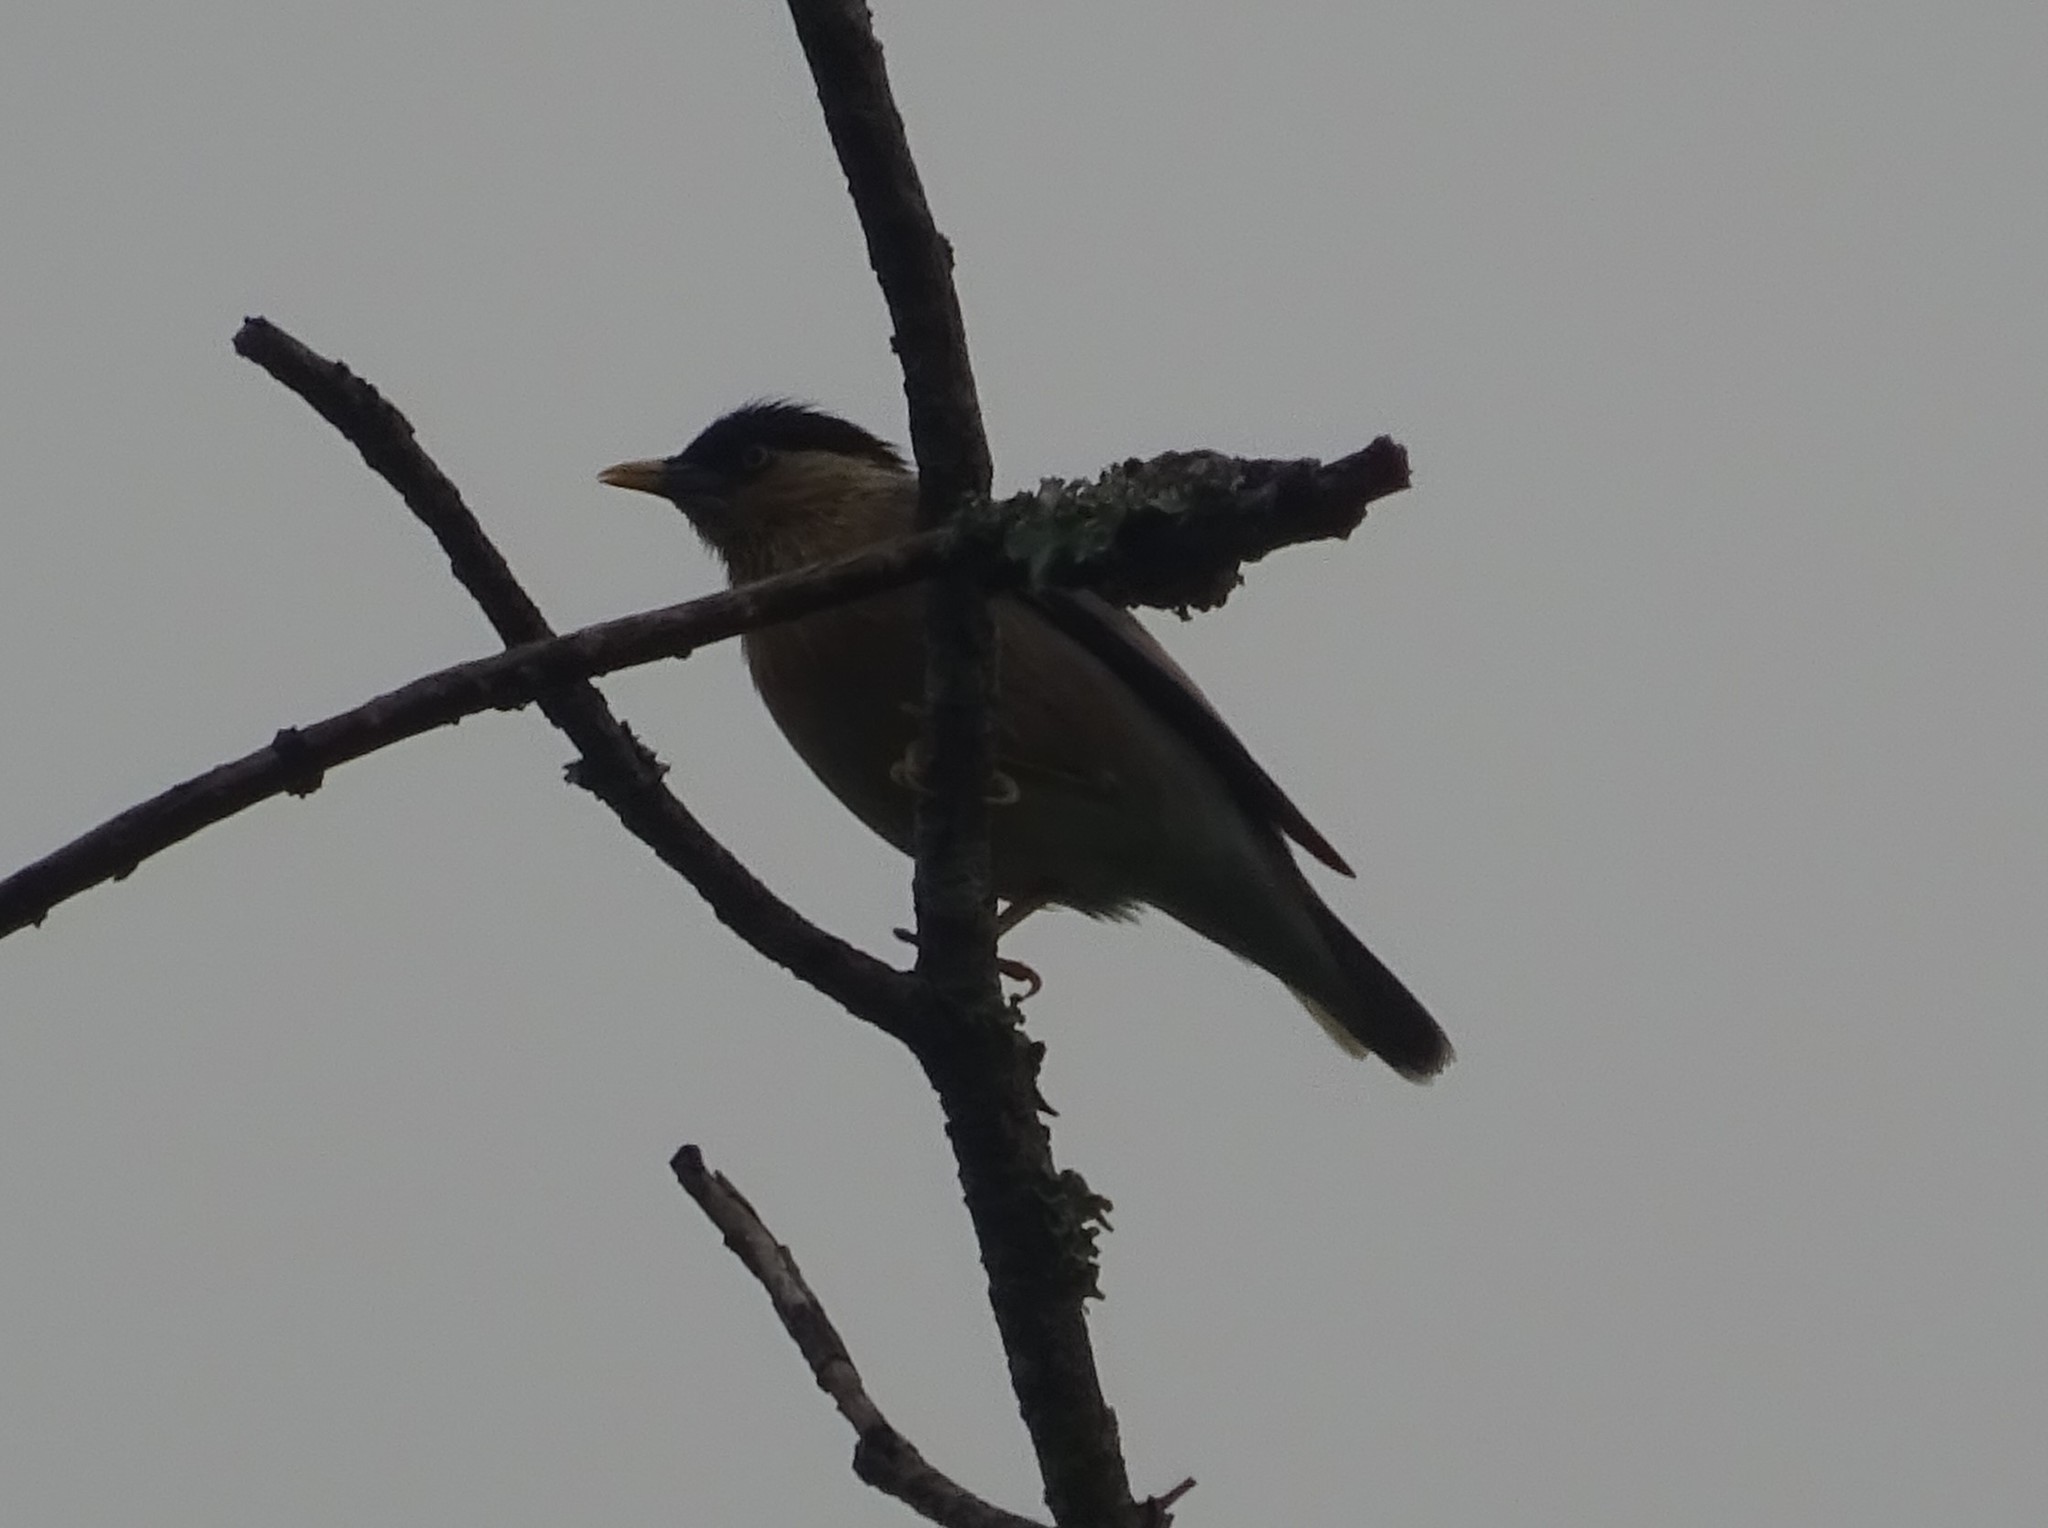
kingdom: Animalia
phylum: Chordata
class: Aves
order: Passeriformes
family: Sturnidae
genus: Sturnia
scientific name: Sturnia pagodarum
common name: Brahminy starling
